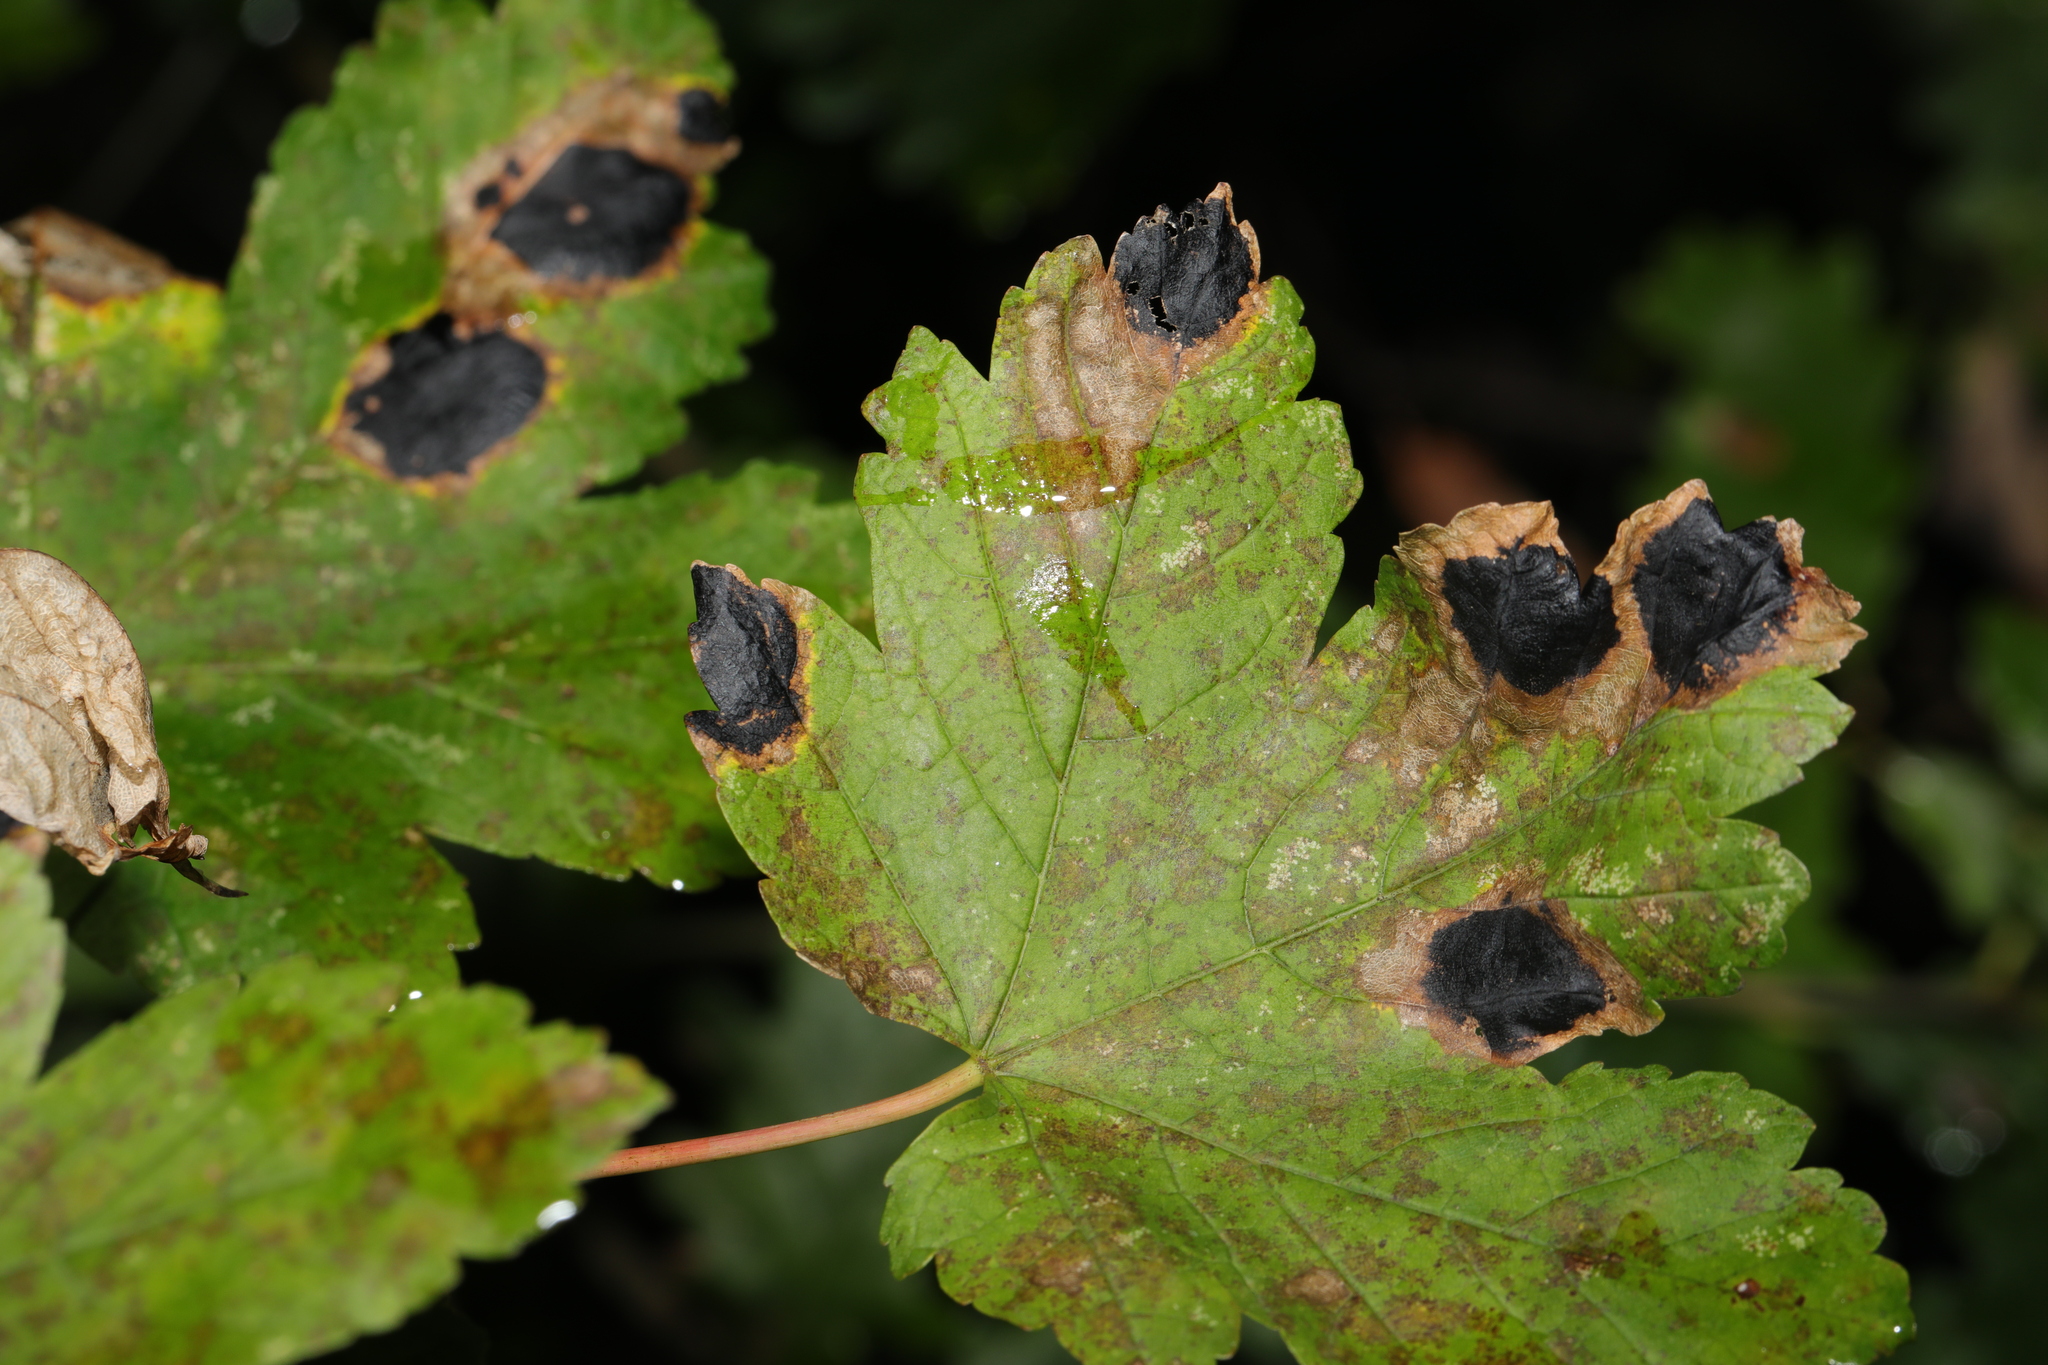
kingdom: Fungi
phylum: Ascomycota
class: Leotiomycetes
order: Rhytismatales
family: Rhytismataceae
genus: Rhytisma
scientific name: Rhytisma acerinum
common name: European tar spot
